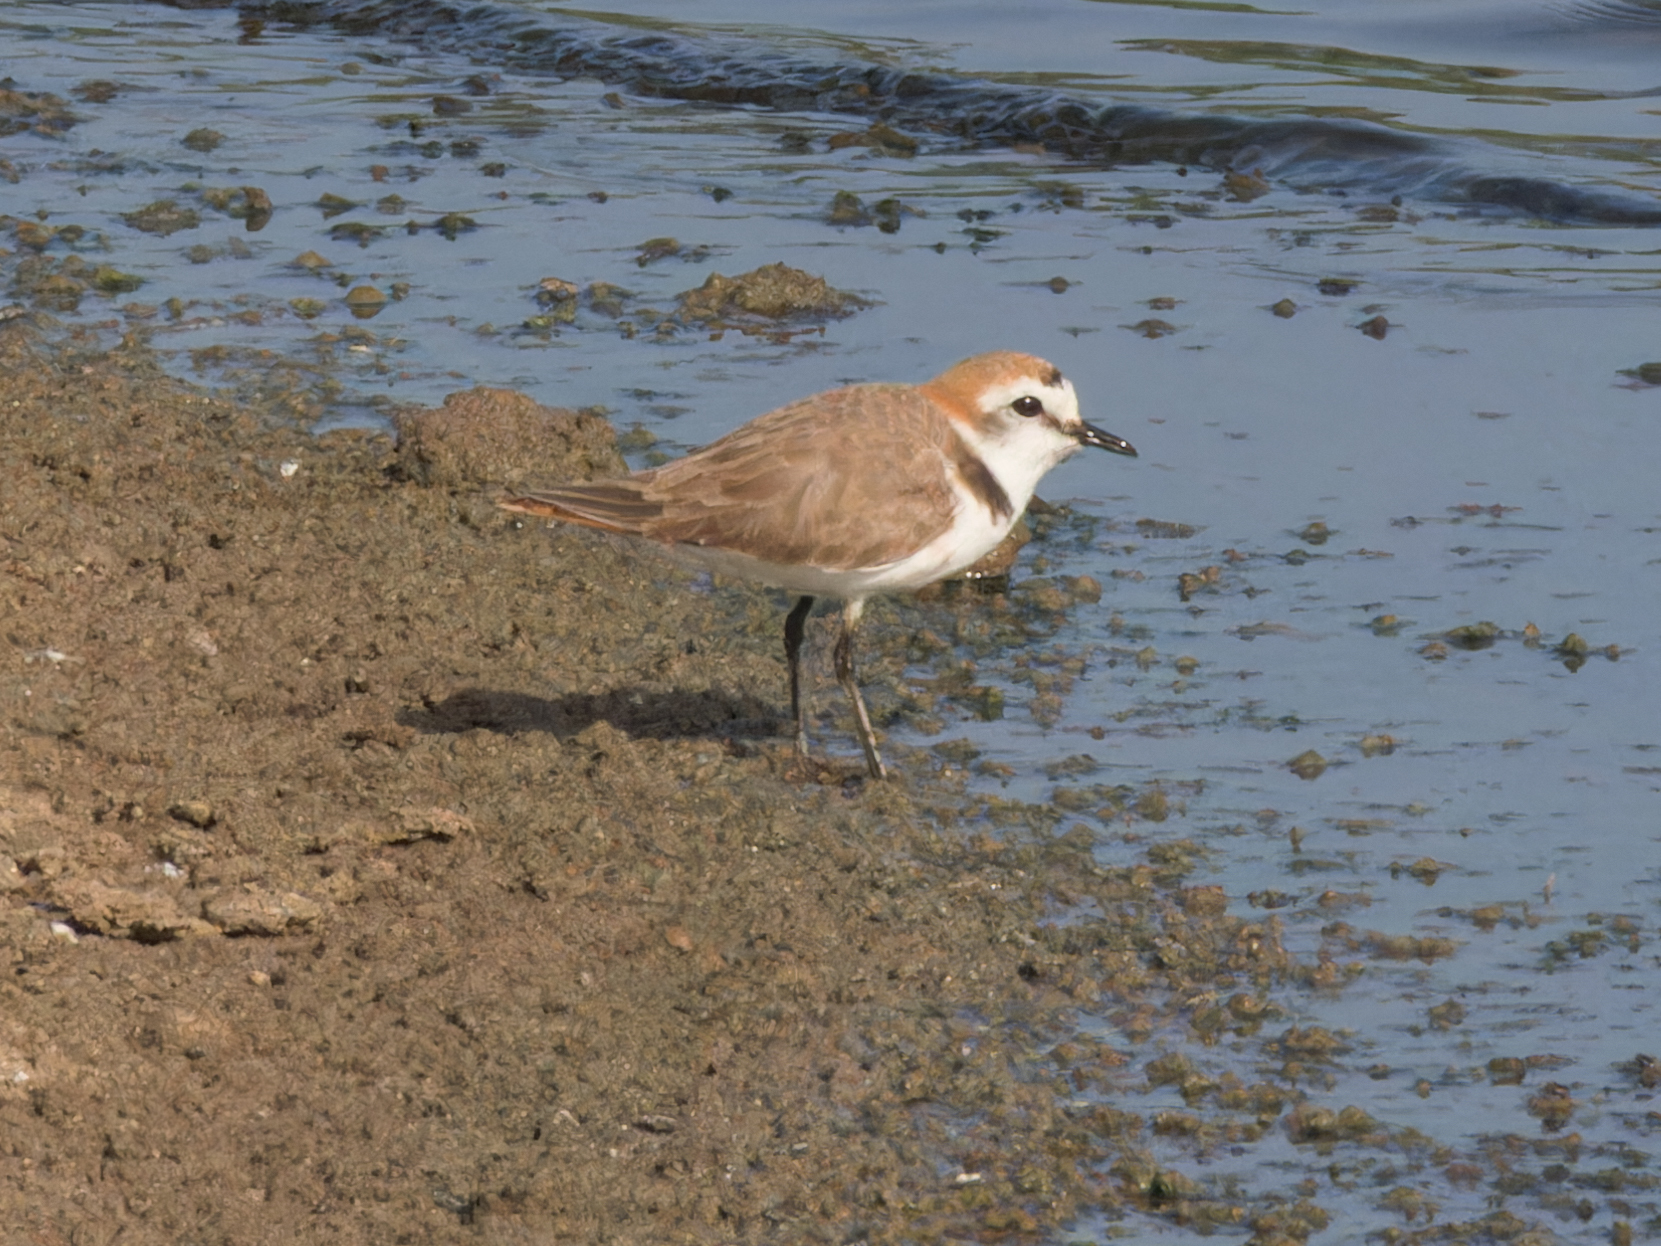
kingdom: Animalia
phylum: Chordata
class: Aves
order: Charadriiformes
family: Charadriidae
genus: Charadrius
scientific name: Charadrius alexandrinus
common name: Kentish plover
